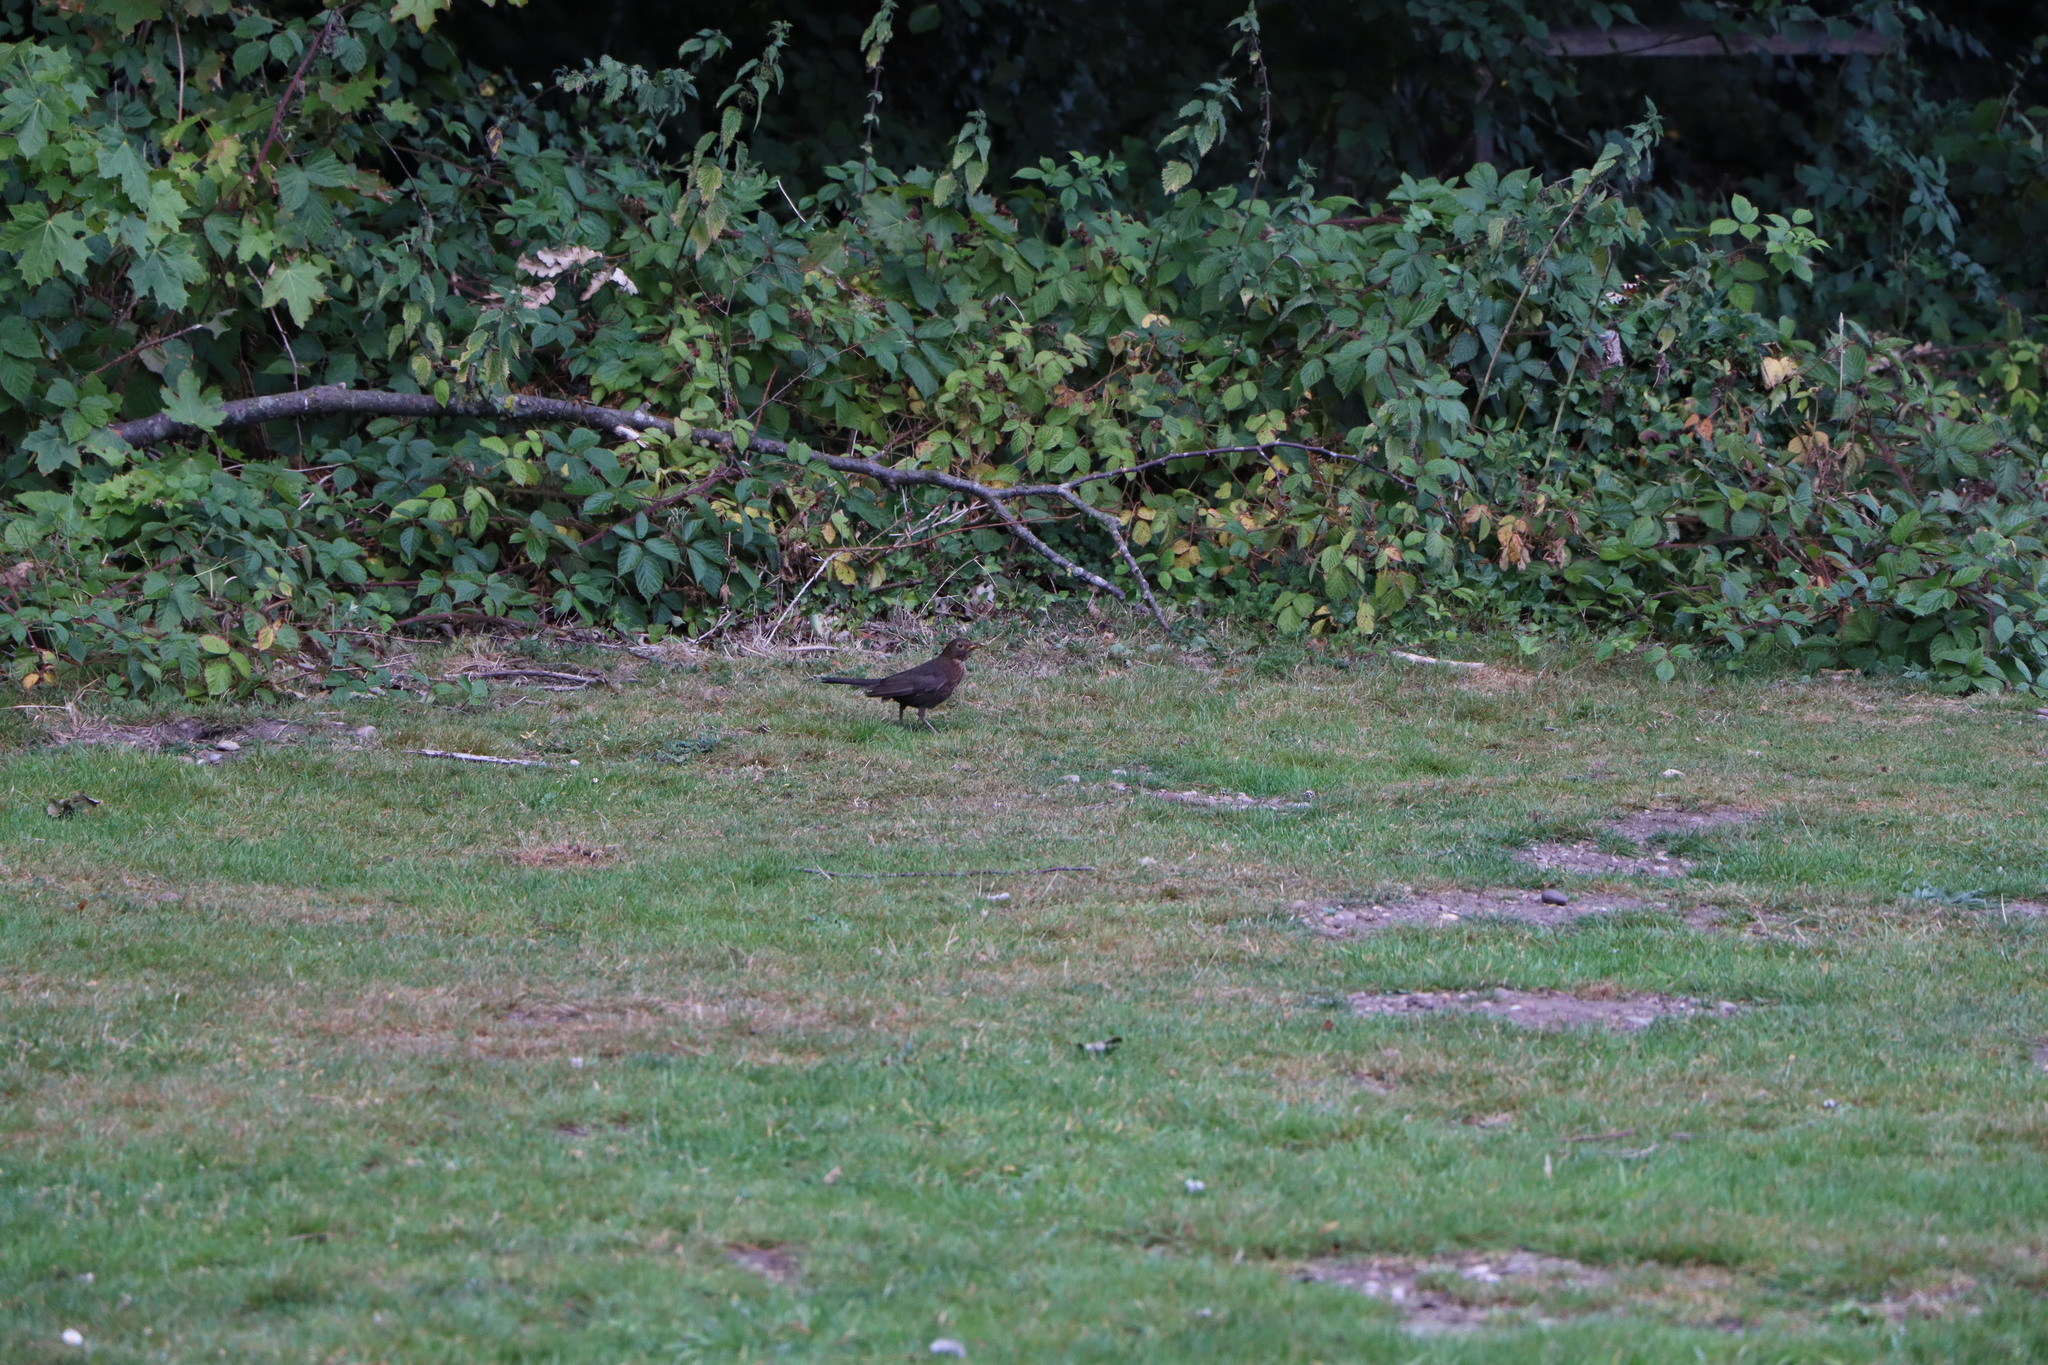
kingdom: Animalia
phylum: Chordata
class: Aves
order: Passeriformes
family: Turdidae
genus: Turdus
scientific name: Turdus merula
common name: Common blackbird
